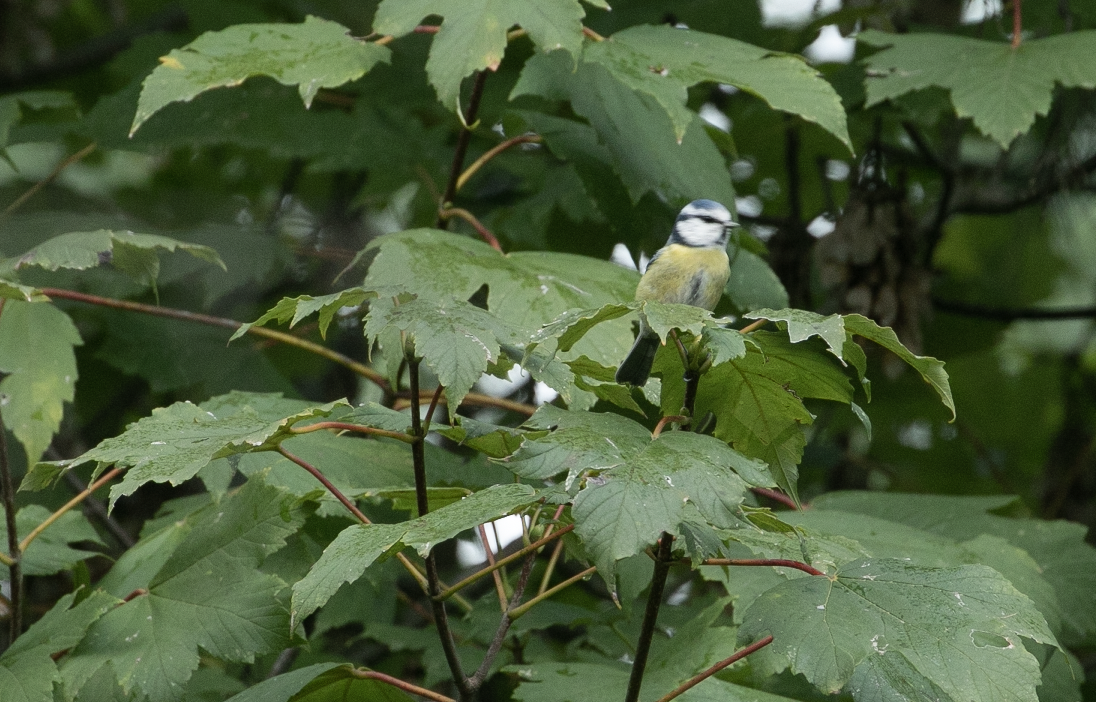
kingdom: Animalia
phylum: Chordata
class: Aves
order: Passeriformes
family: Paridae
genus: Cyanistes
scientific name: Cyanistes caeruleus
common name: Eurasian blue tit
